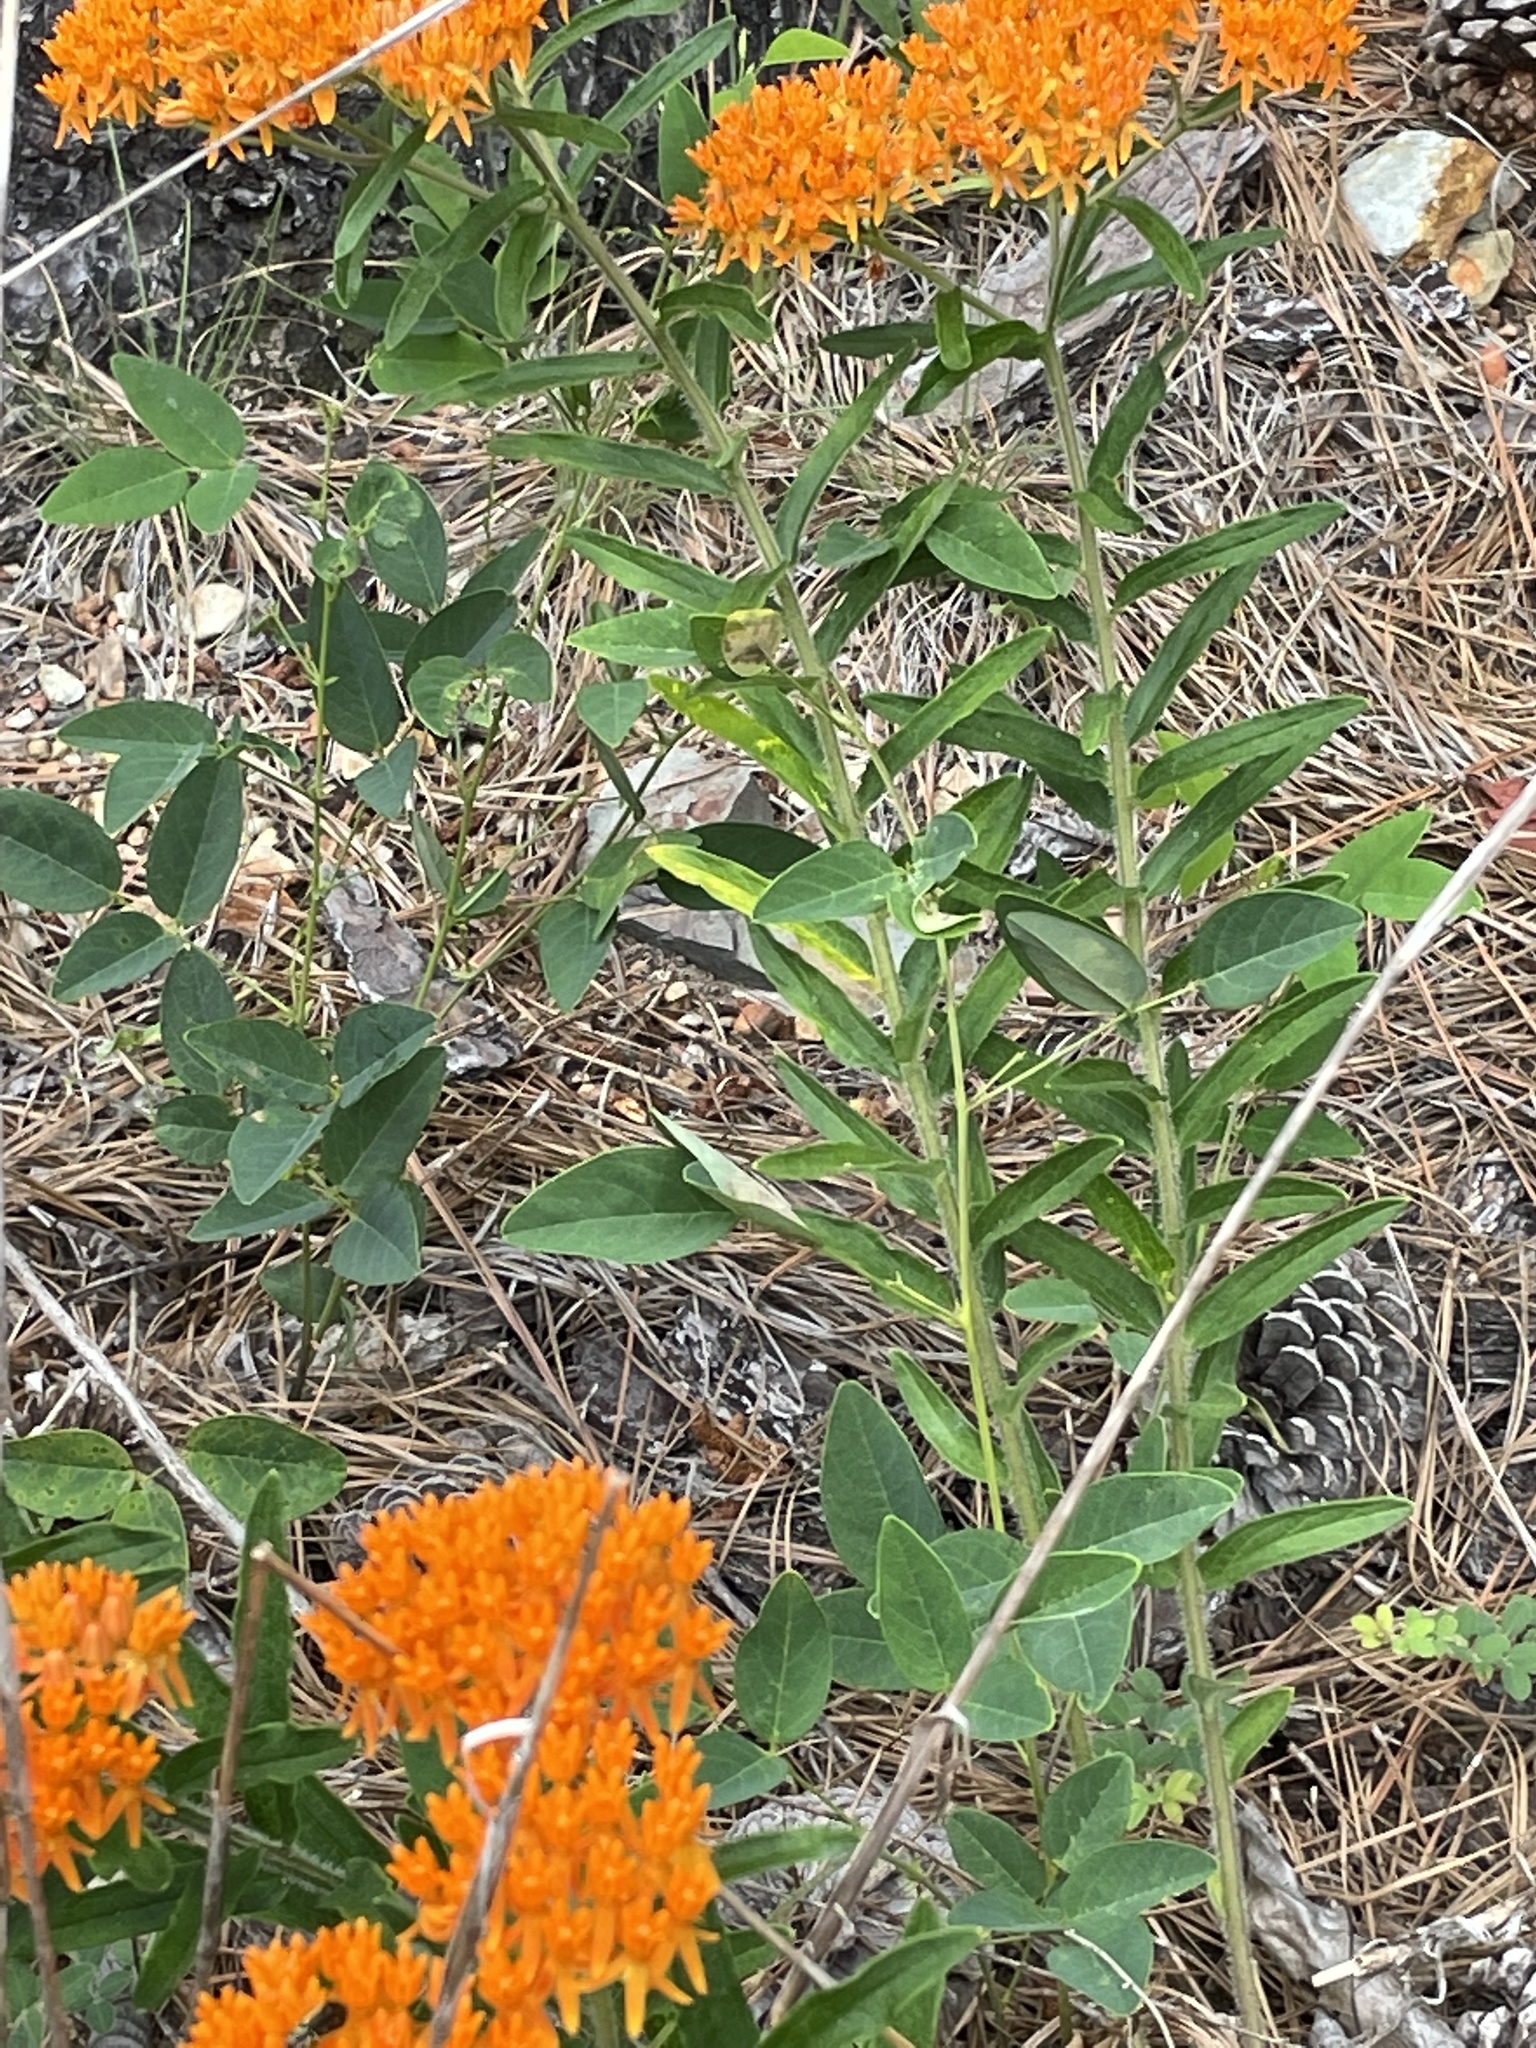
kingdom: Plantae
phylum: Tracheophyta
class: Magnoliopsida
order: Gentianales
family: Apocynaceae
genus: Asclepias
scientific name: Asclepias tuberosa
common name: Butterfly milkweed
